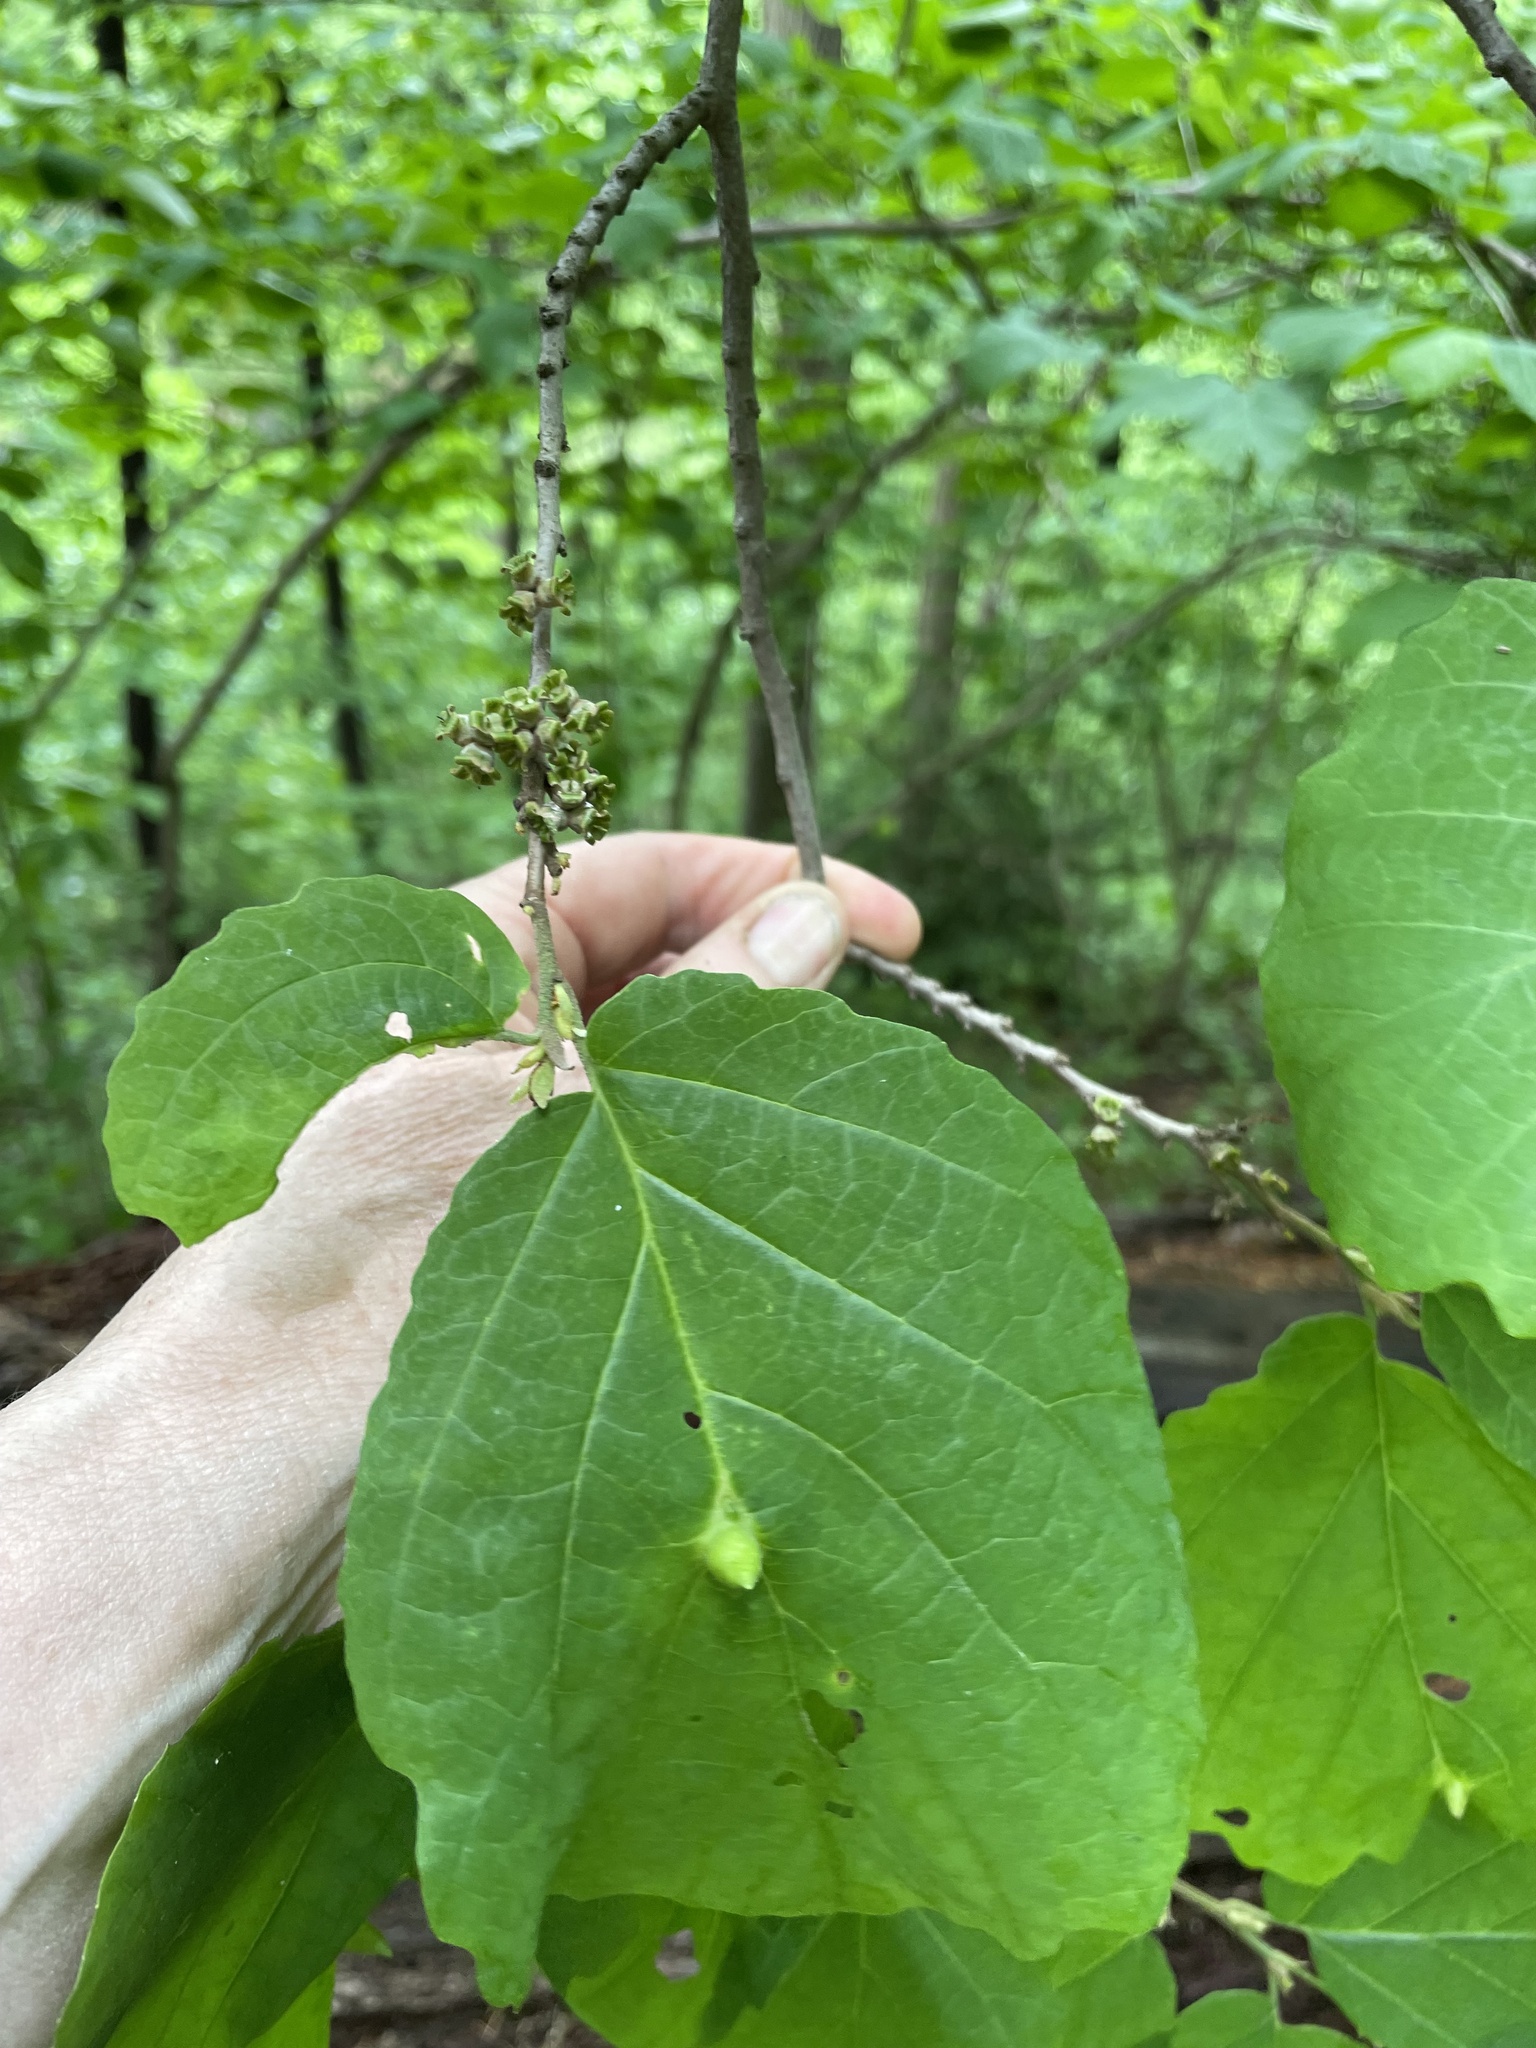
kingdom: Animalia
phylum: Arthropoda
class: Insecta
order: Hemiptera
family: Aphididae
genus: Hormaphis
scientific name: Hormaphis hamamelidis
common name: Witch-hazel cone gall aphid
